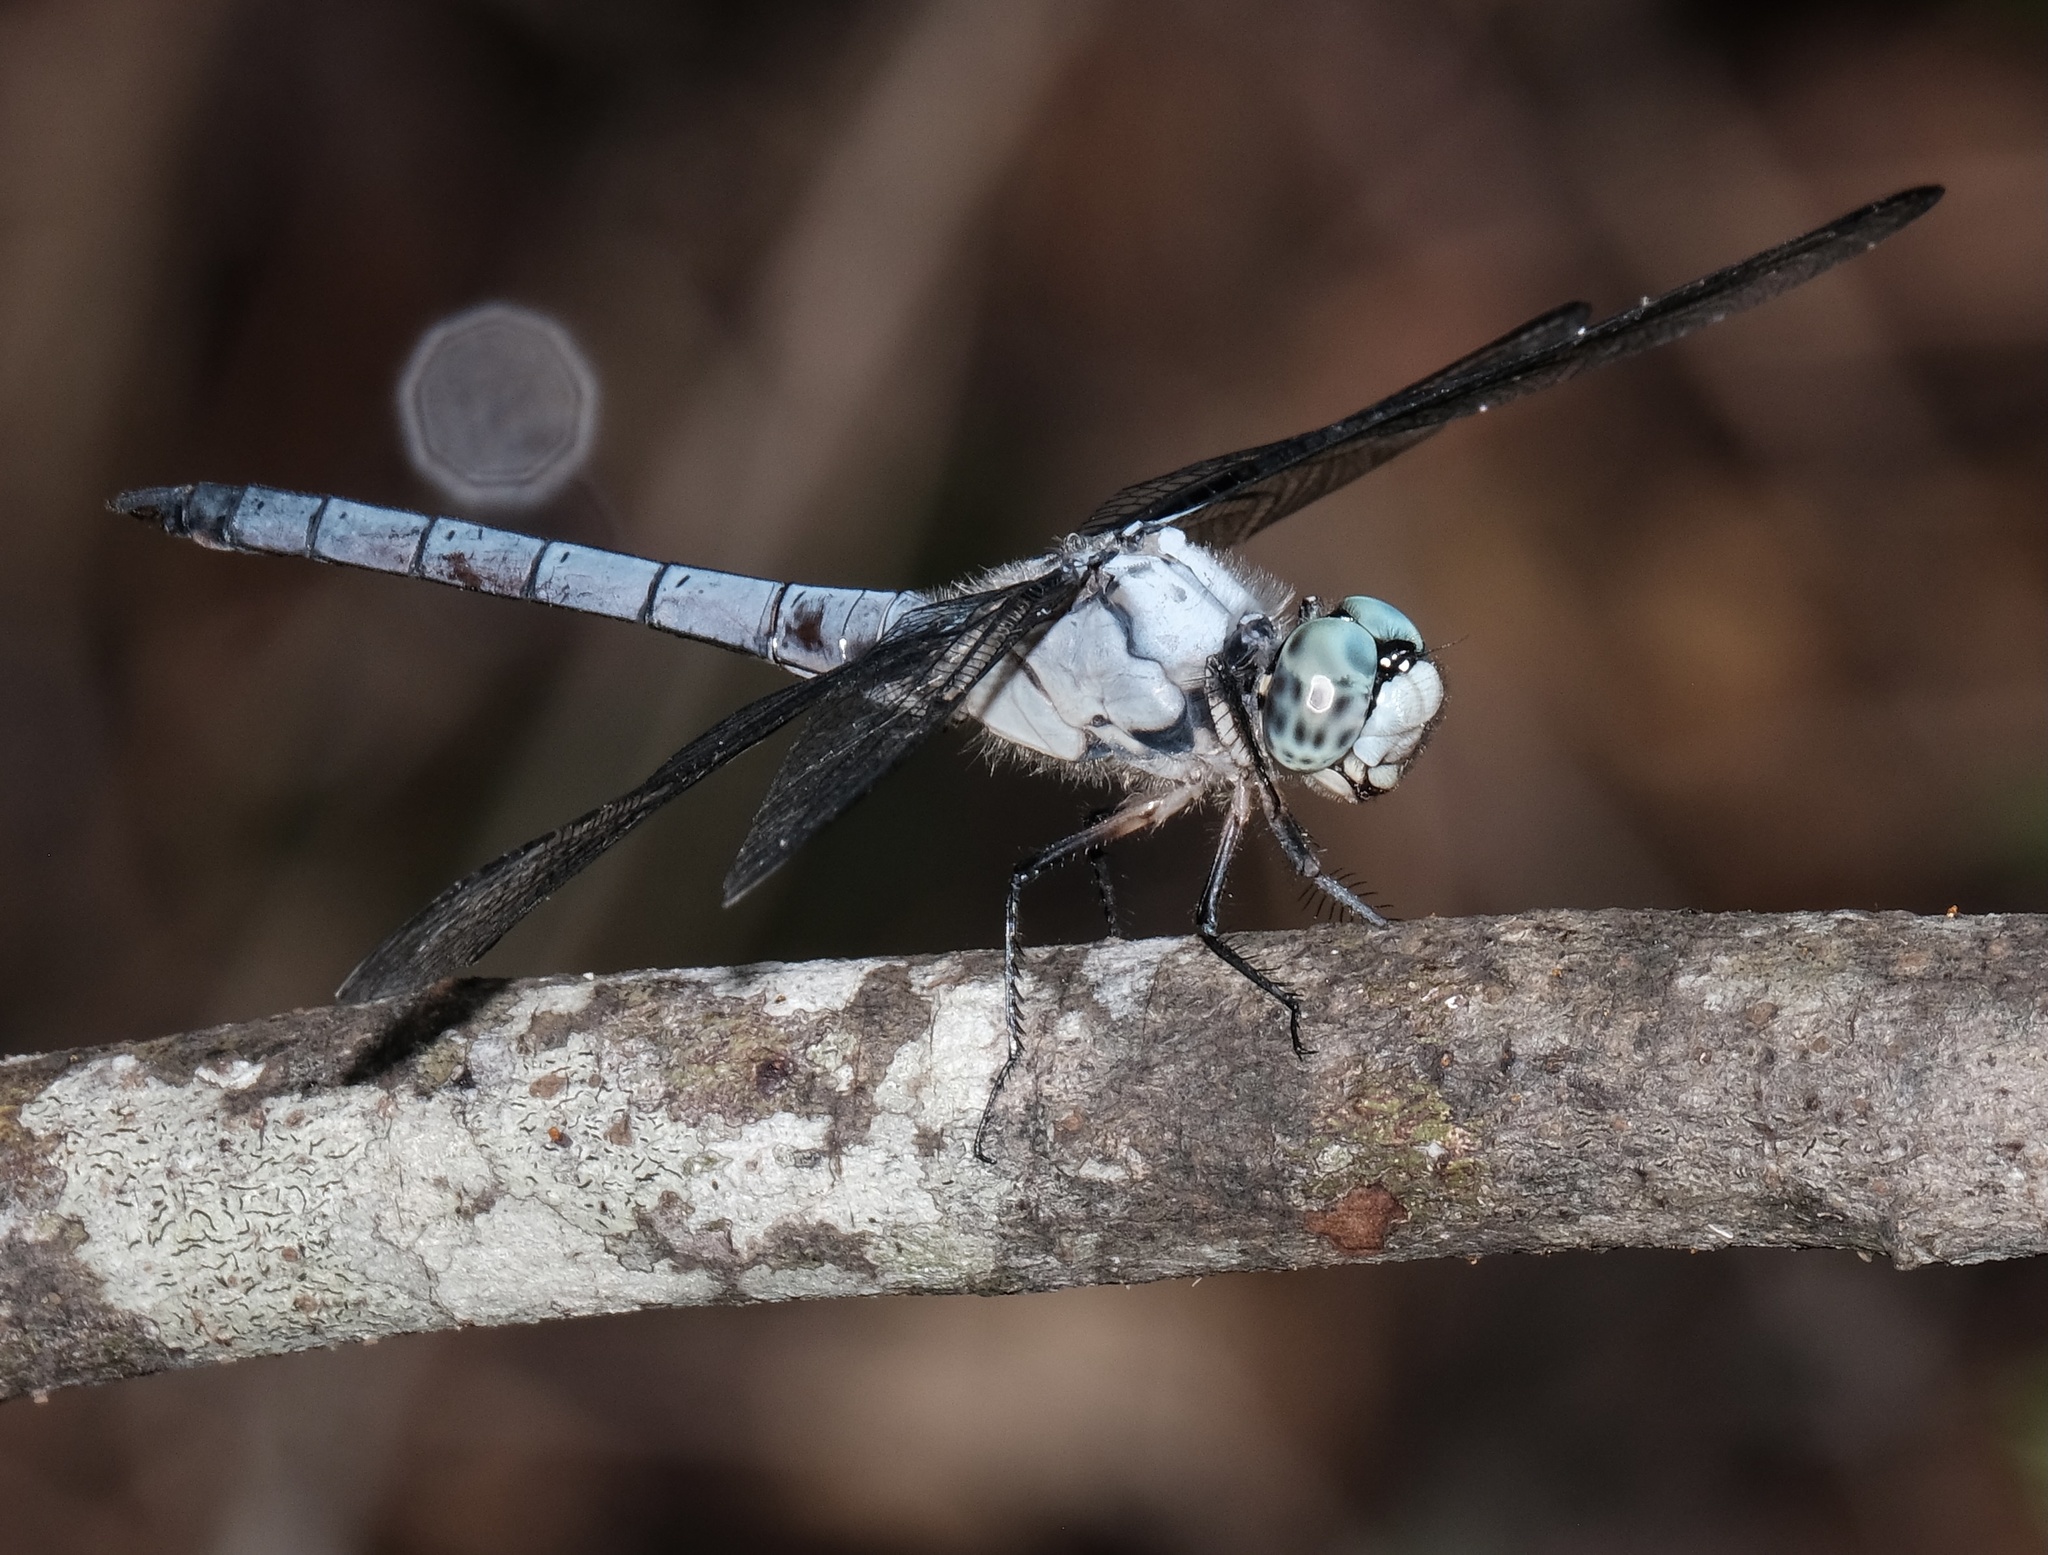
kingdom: Animalia
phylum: Arthropoda
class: Insecta
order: Odonata
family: Libellulidae
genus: Libellula
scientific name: Libellula vibrans
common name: Great blue skimmer
